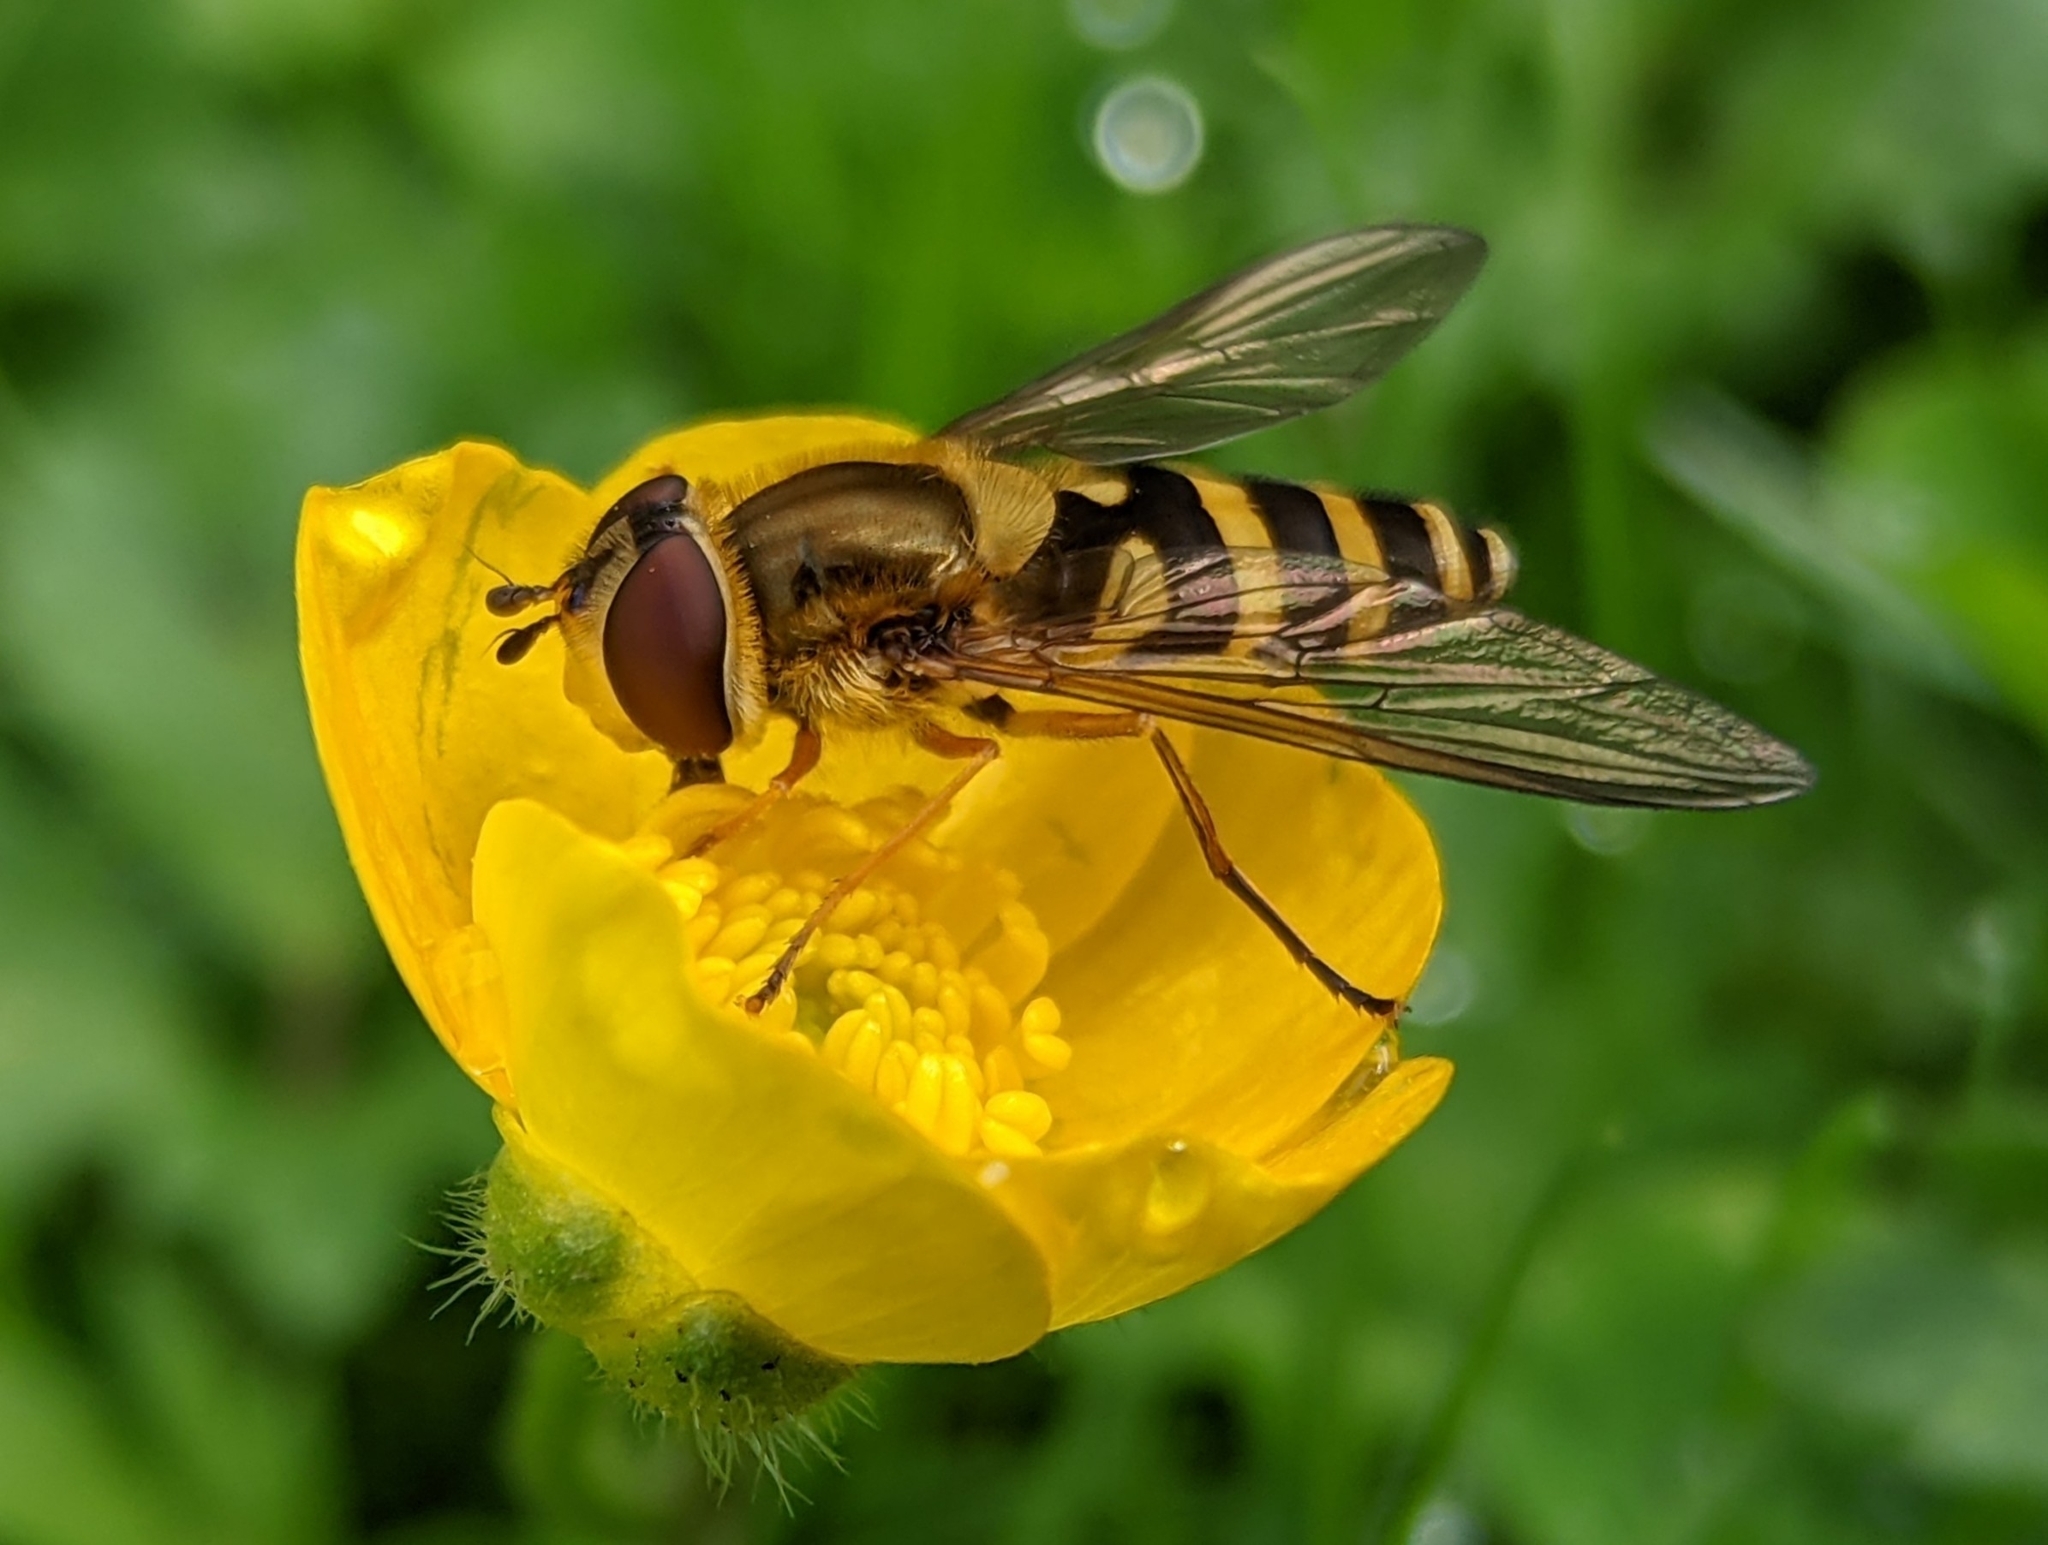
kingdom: Animalia
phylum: Arthropoda
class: Insecta
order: Diptera
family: Syrphidae
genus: Syrphus
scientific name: Syrphus ribesii
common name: Common flower fly
